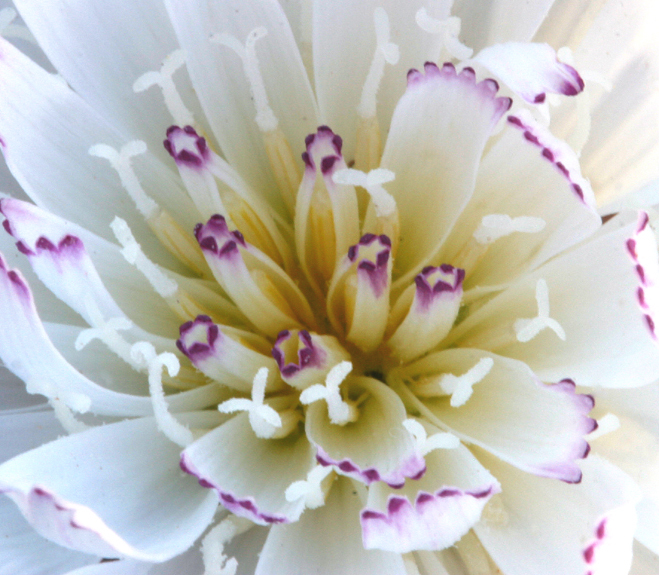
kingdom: Plantae
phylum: Tracheophyta
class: Magnoliopsida
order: Asterales
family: Asteraceae
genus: Atrichoseris
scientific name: Atrichoseris platyphylla
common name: Tobaccoweed
